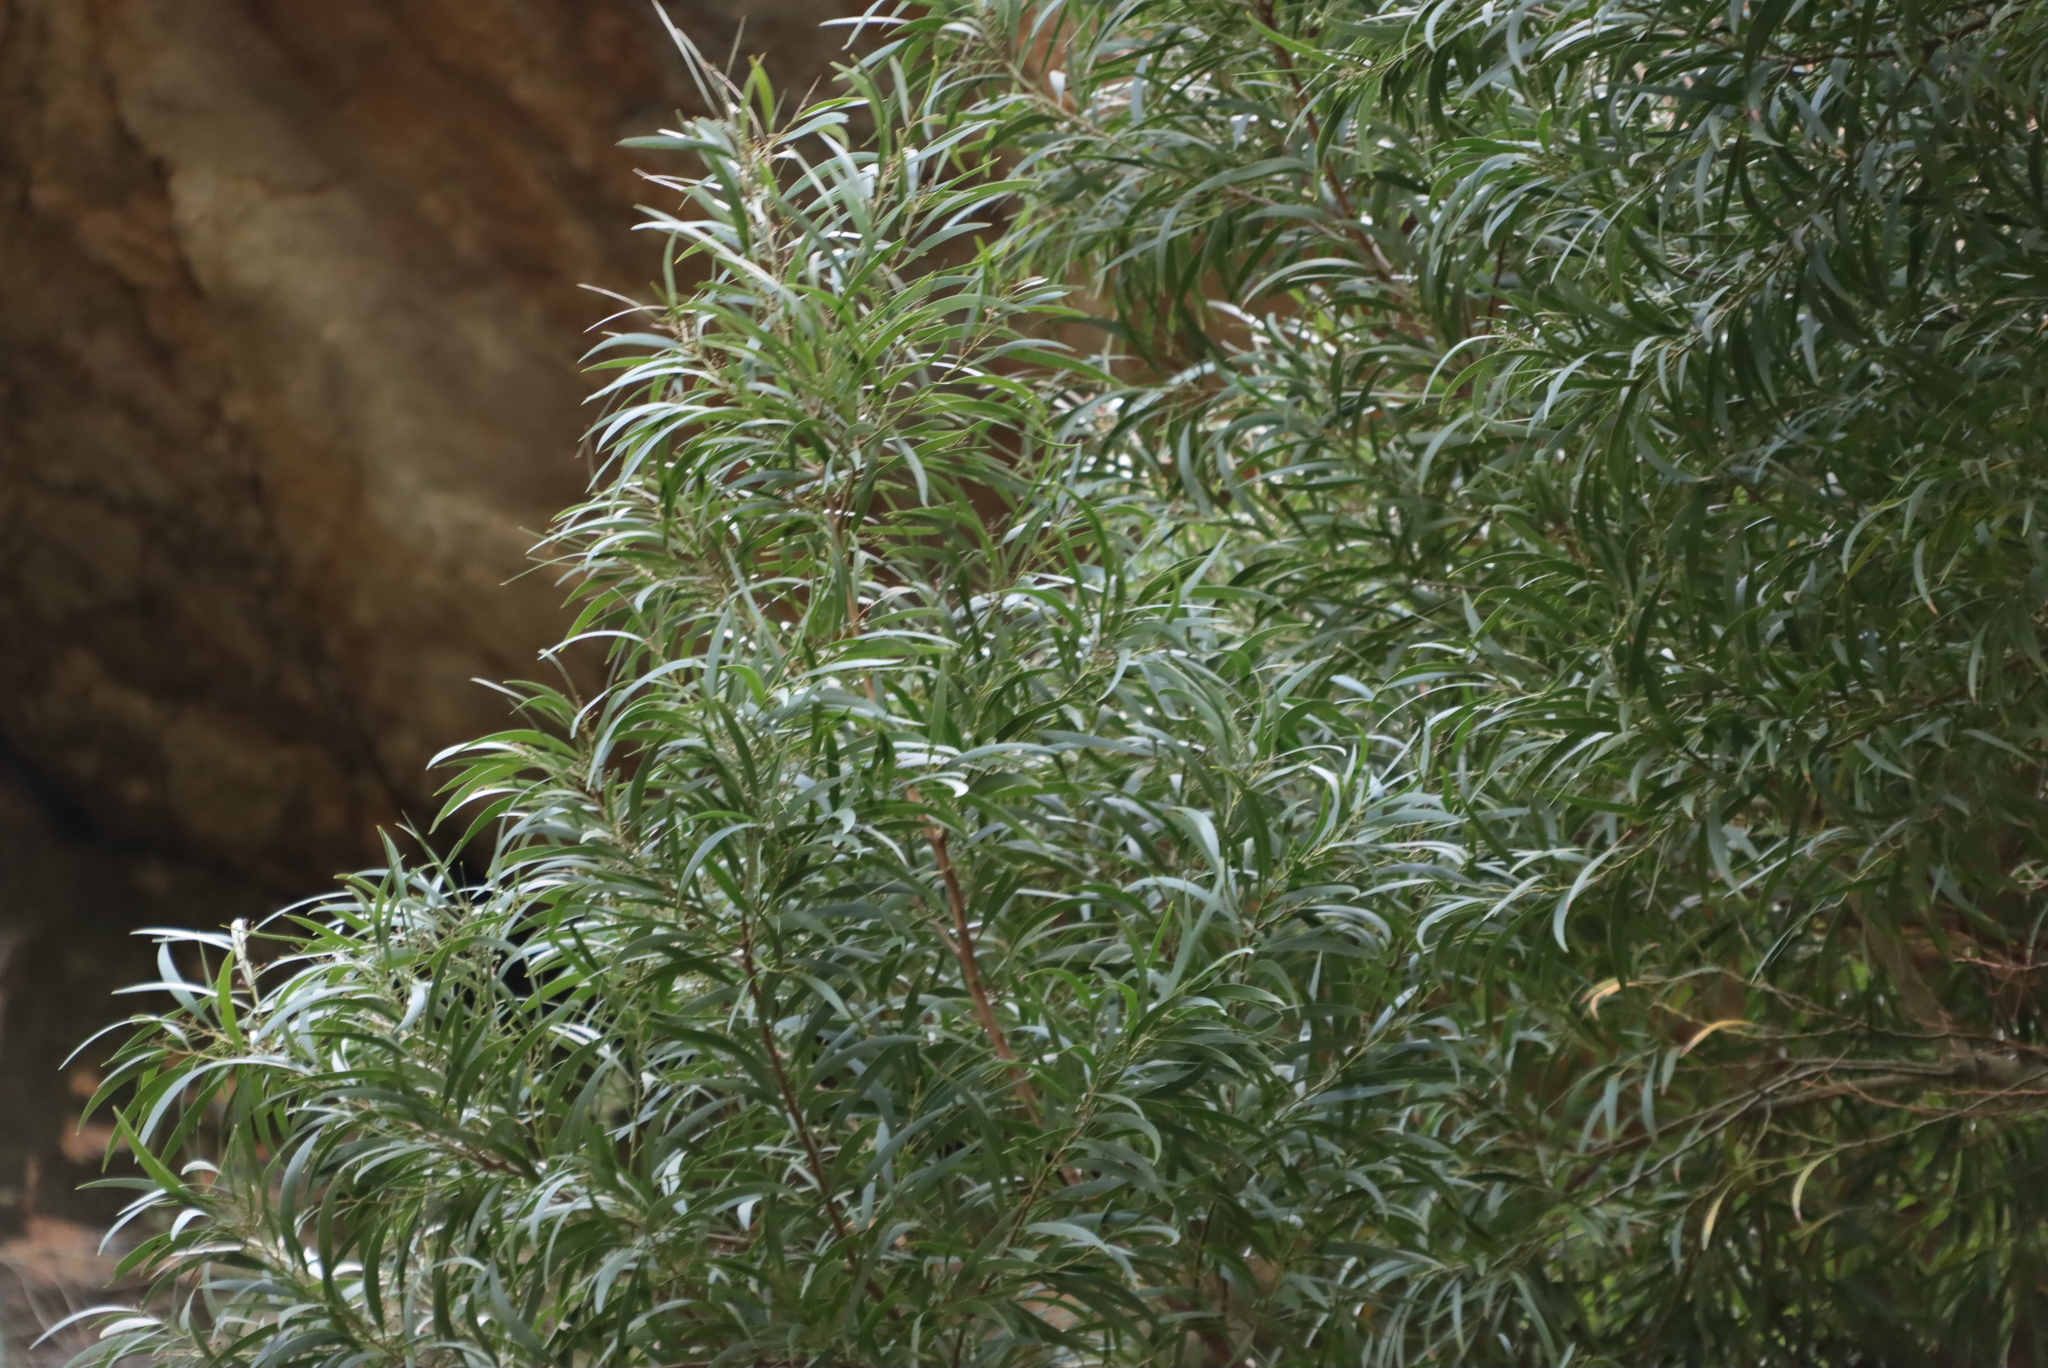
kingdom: Plantae
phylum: Tracheophyta
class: Magnoliopsida
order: Fabales
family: Fabaceae
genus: Acacia
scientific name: Acacia melanoxylon
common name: Blackwood
